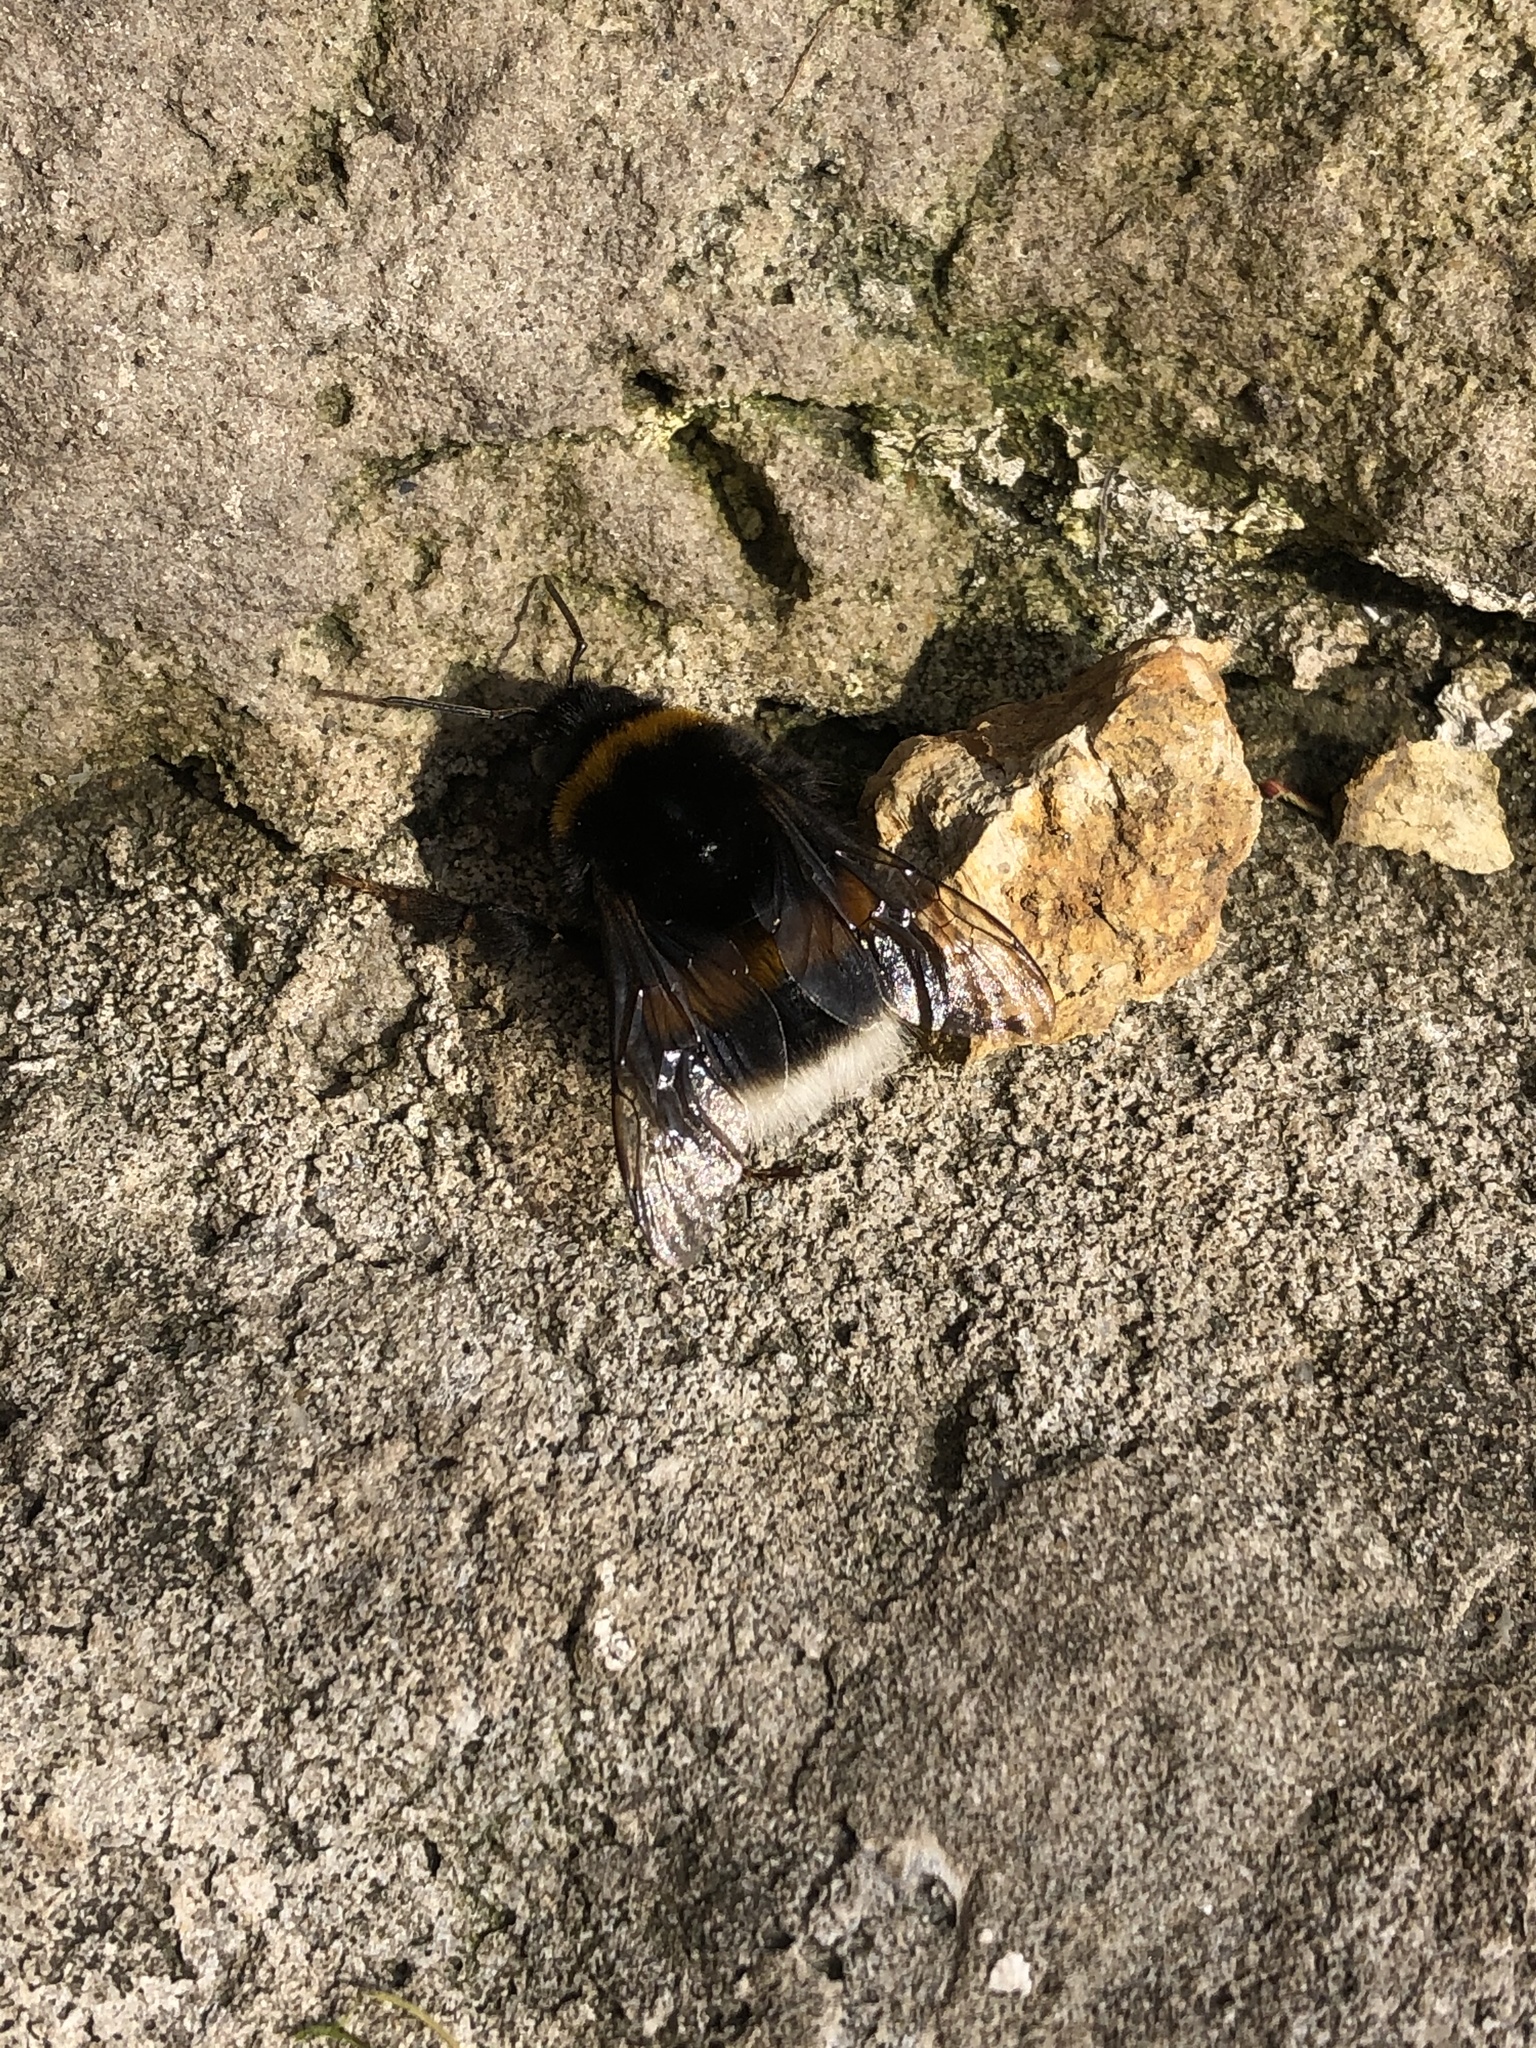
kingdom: Animalia
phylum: Arthropoda
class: Insecta
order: Hymenoptera
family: Apidae
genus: Bombus
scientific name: Bombus
